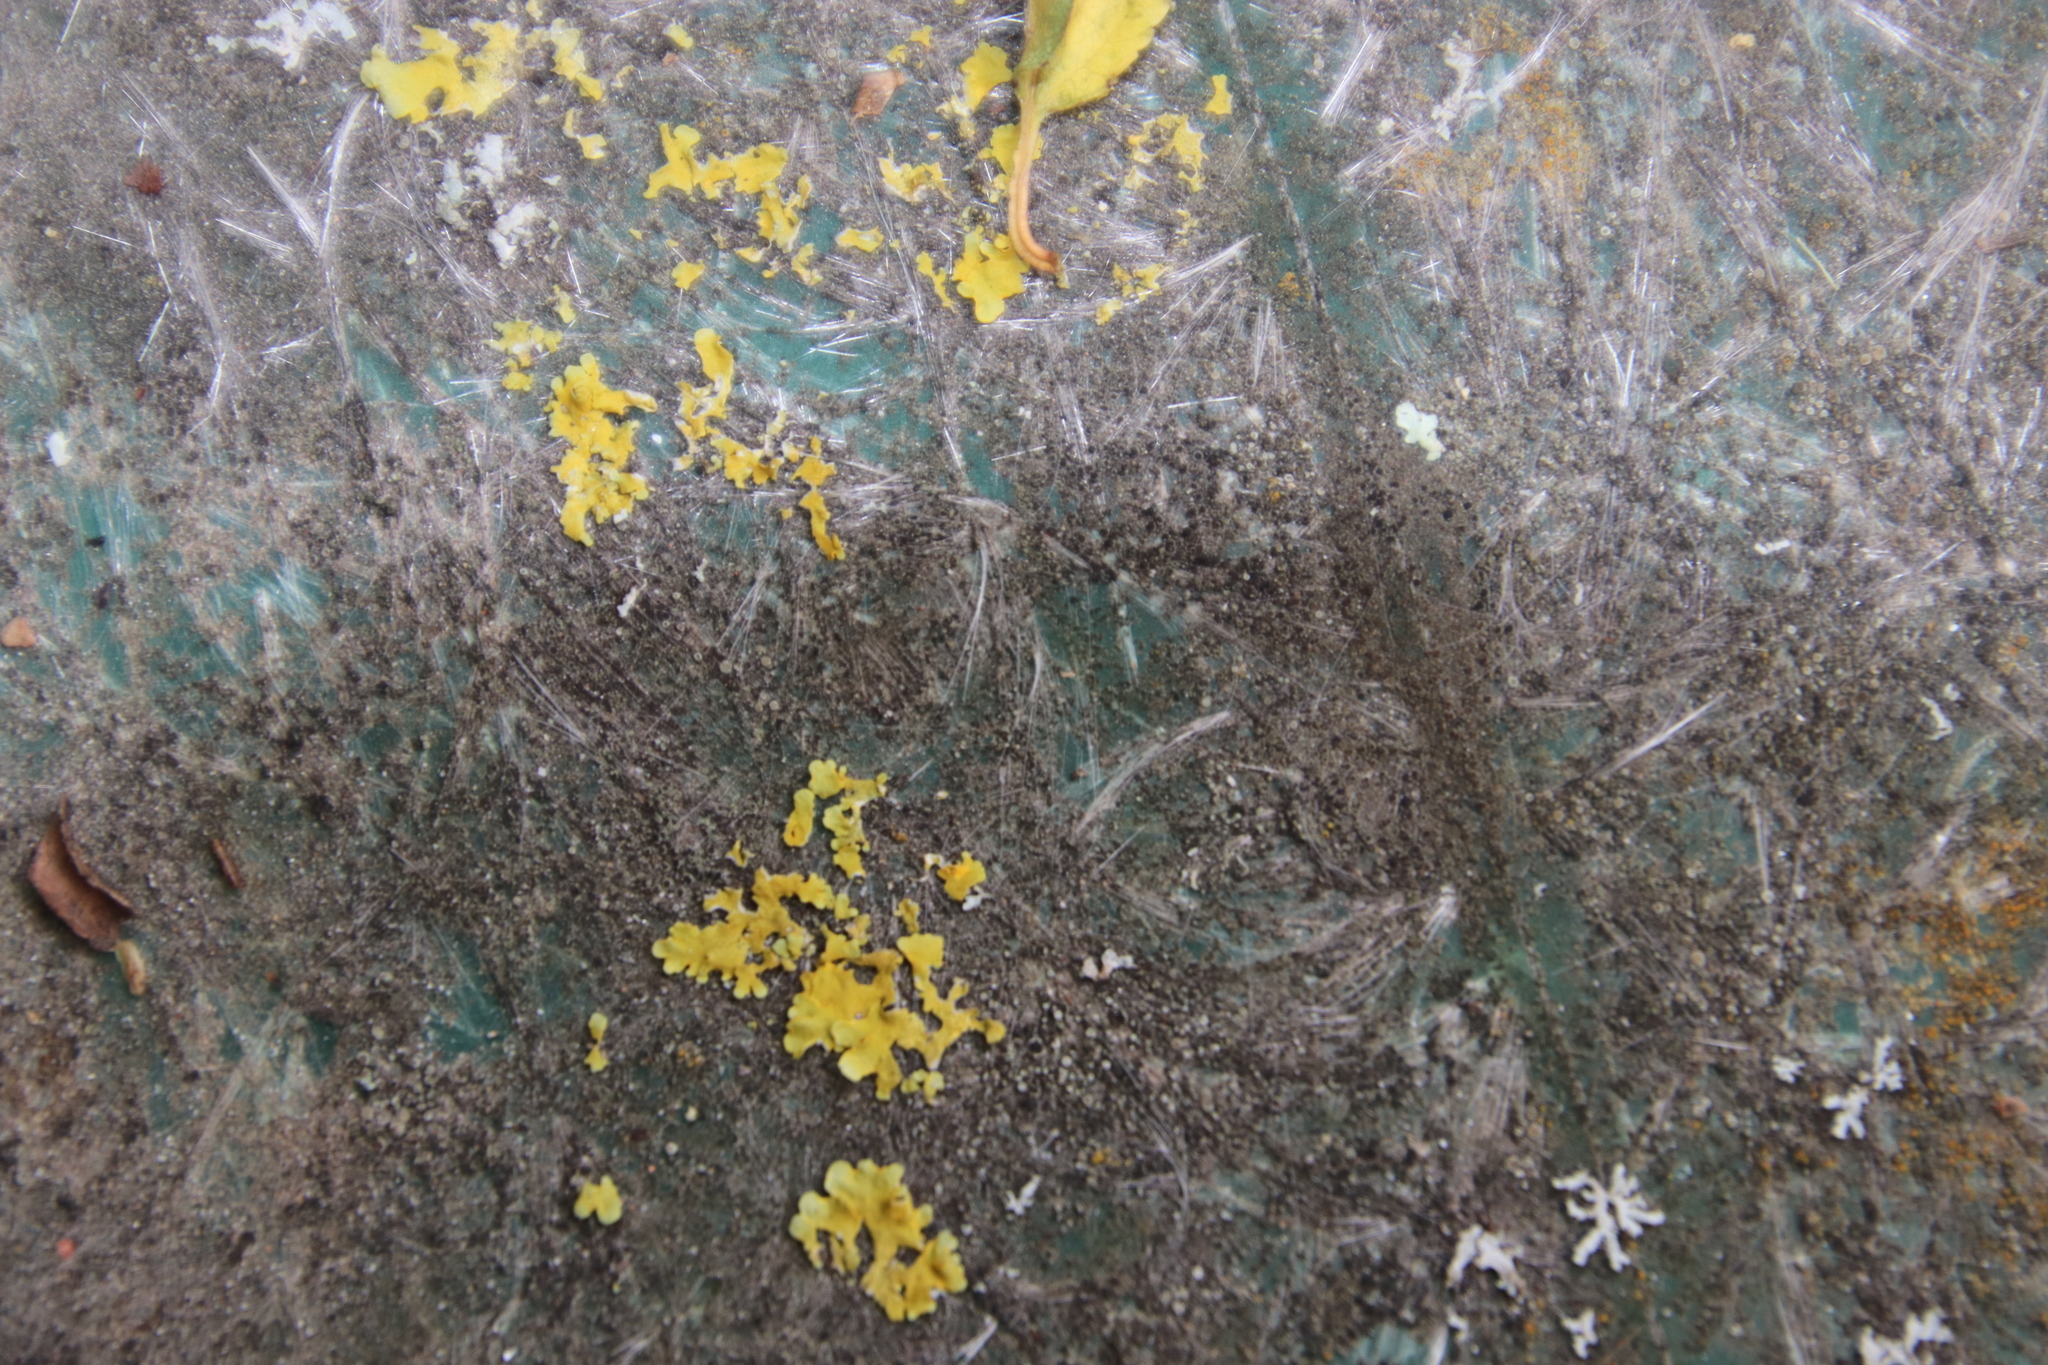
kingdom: Fungi
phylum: Ascomycota
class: Lecanoromycetes
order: Teloschistales
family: Teloschistaceae
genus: Xanthoria
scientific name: Xanthoria parietina
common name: Common orange lichen
